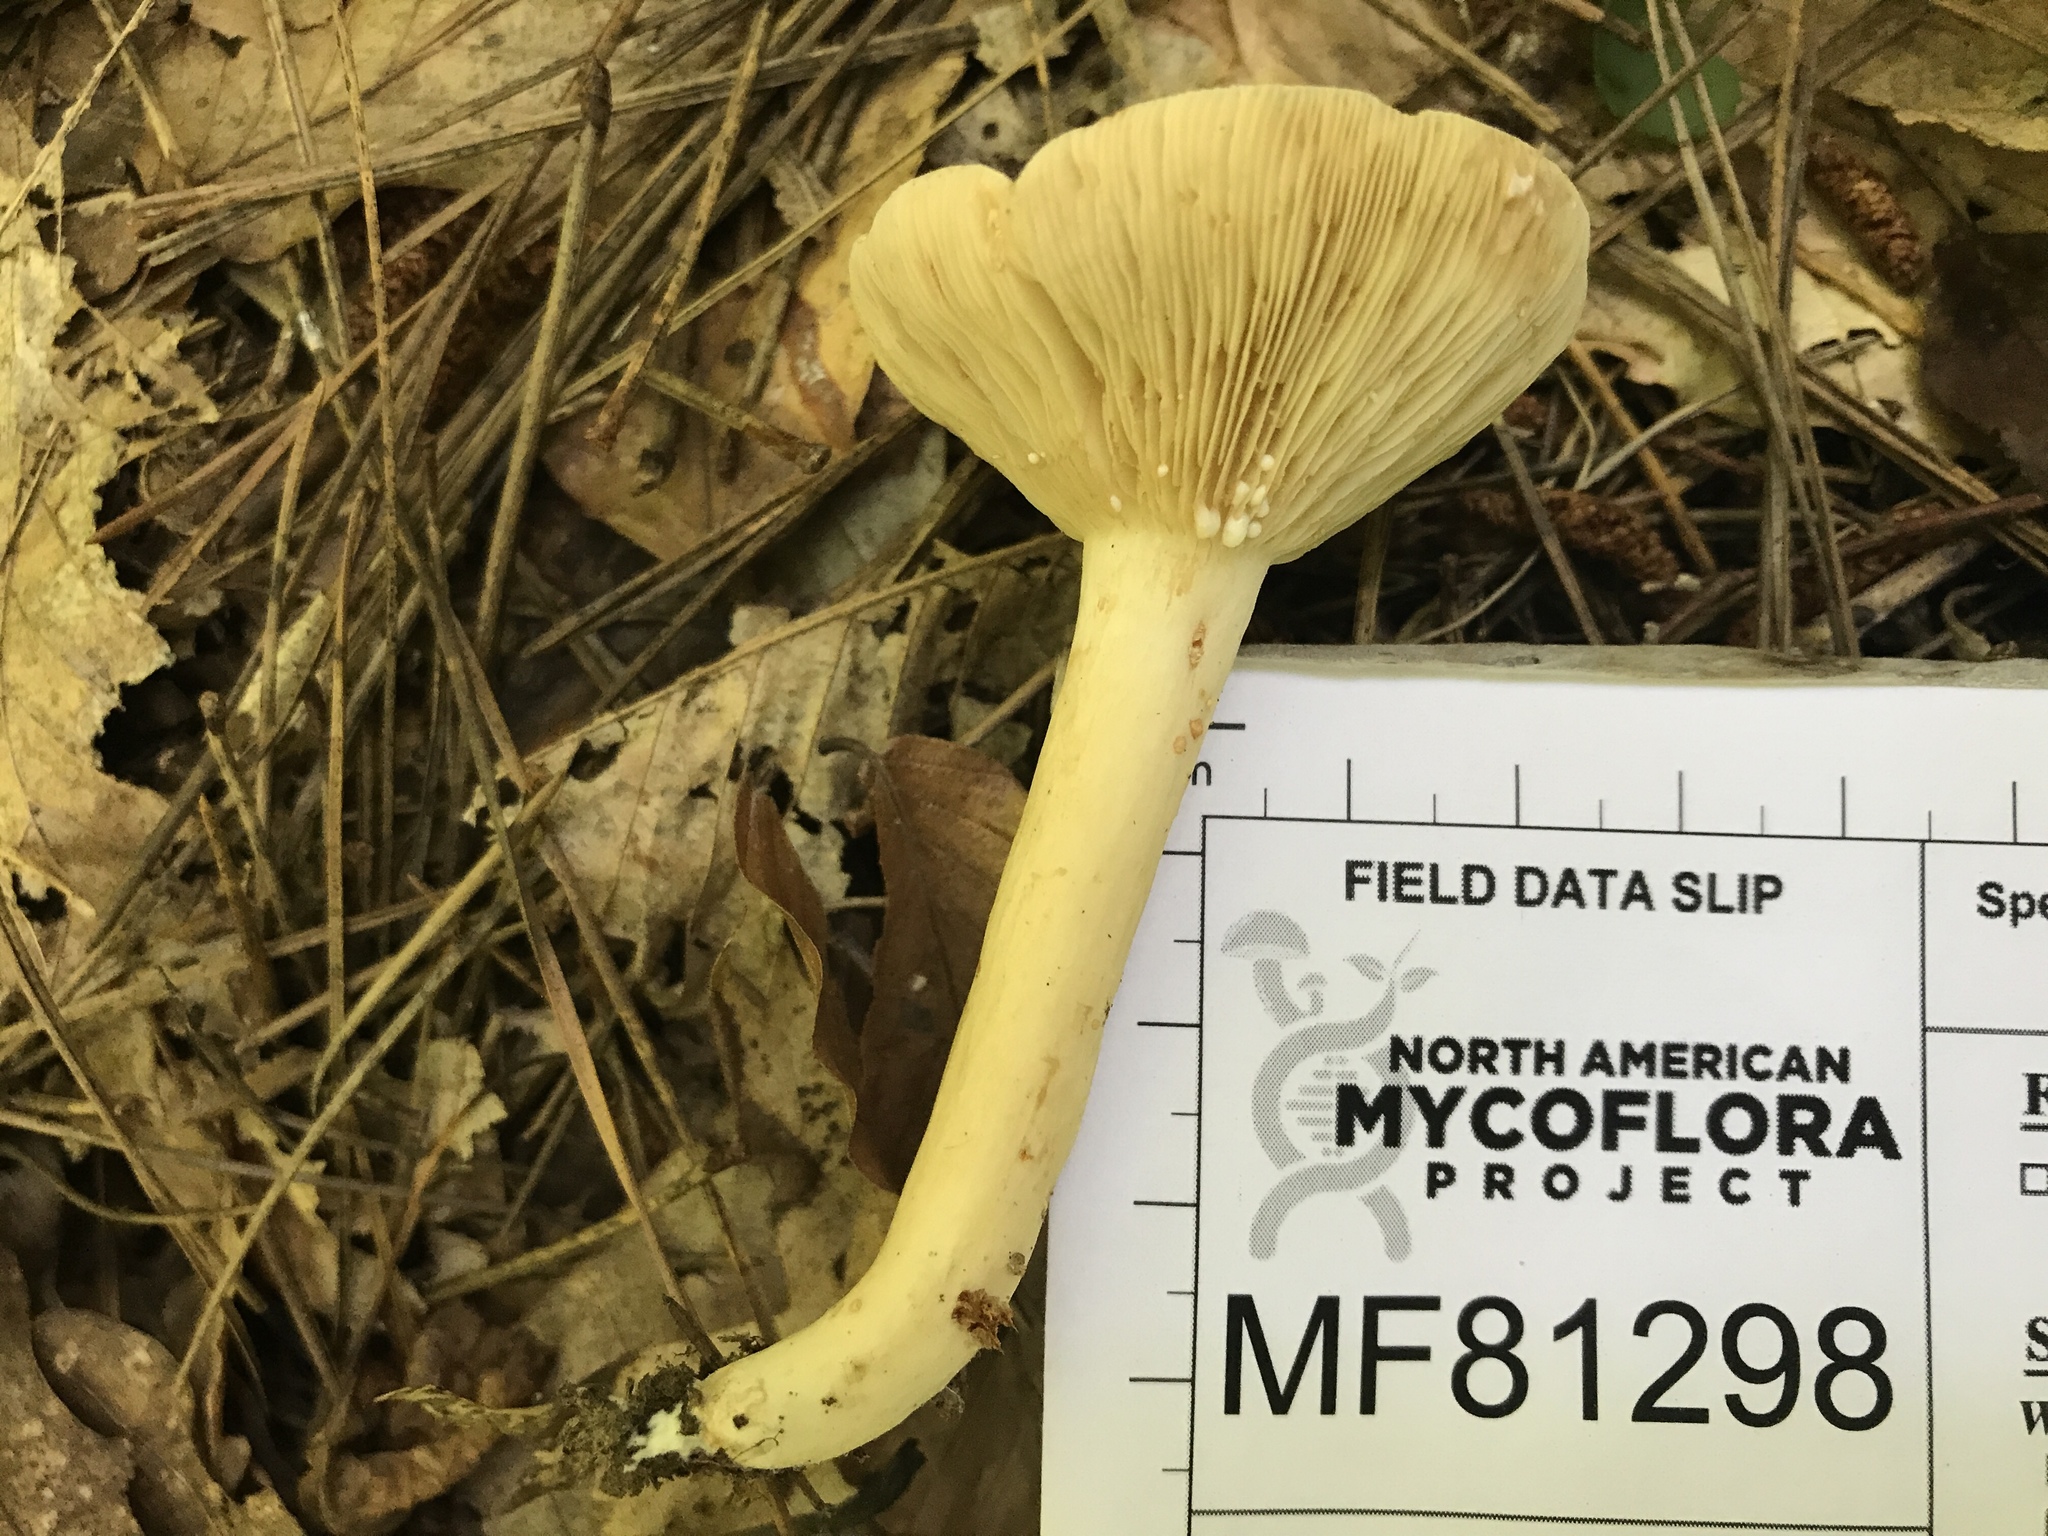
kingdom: Fungi
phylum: Basidiomycota
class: Agaricomycetes
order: Russulales
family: Russulaceae
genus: Lactarius
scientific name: Lactarius fumosus
